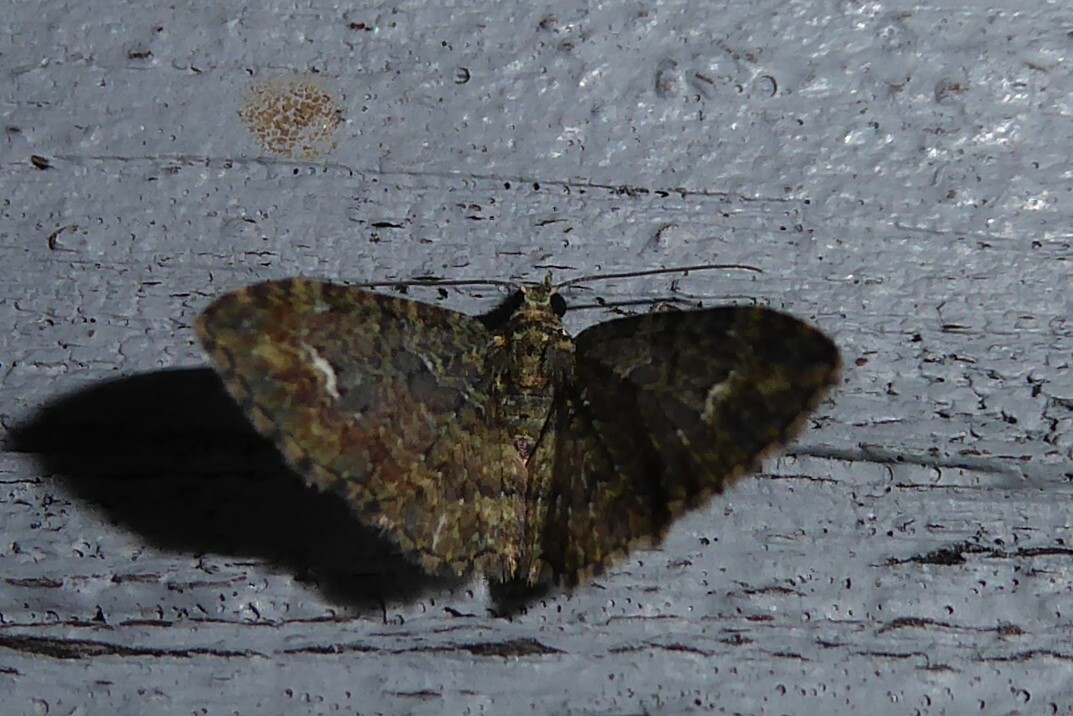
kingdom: Animalia
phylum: Arthropoda
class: Insecta
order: Lepidoptera
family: Geometridae
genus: Pasiphilodes
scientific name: Pasiphilodes testulata
